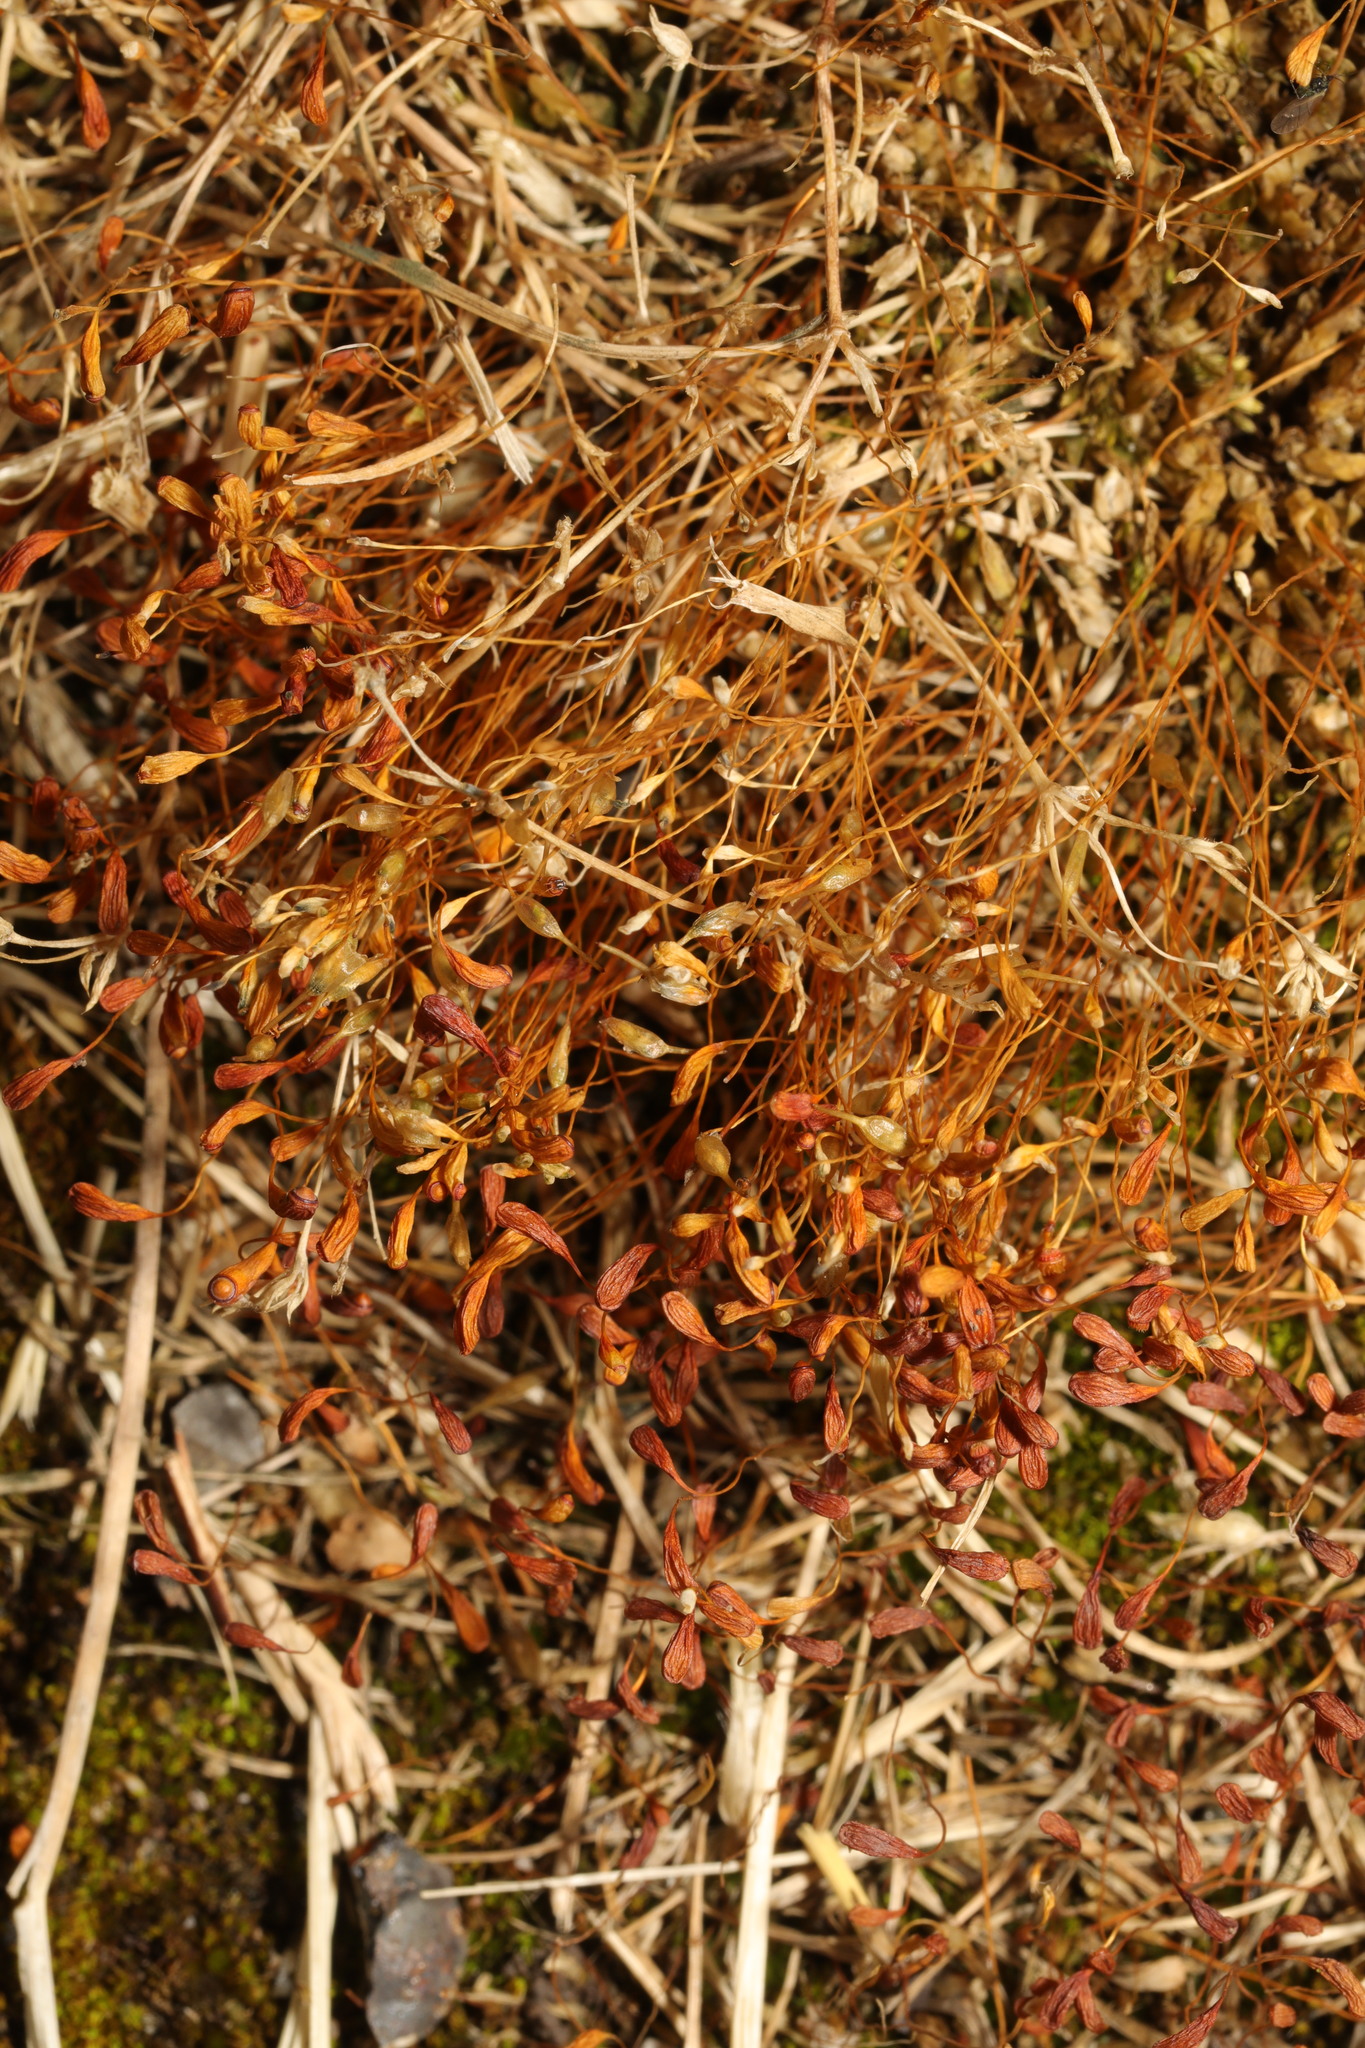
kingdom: Plantae
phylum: Bryophyta
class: Bryopsida
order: Funariales
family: Funariaceae
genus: Funaria
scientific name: Funaria hygrometrica
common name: Common cord moss
